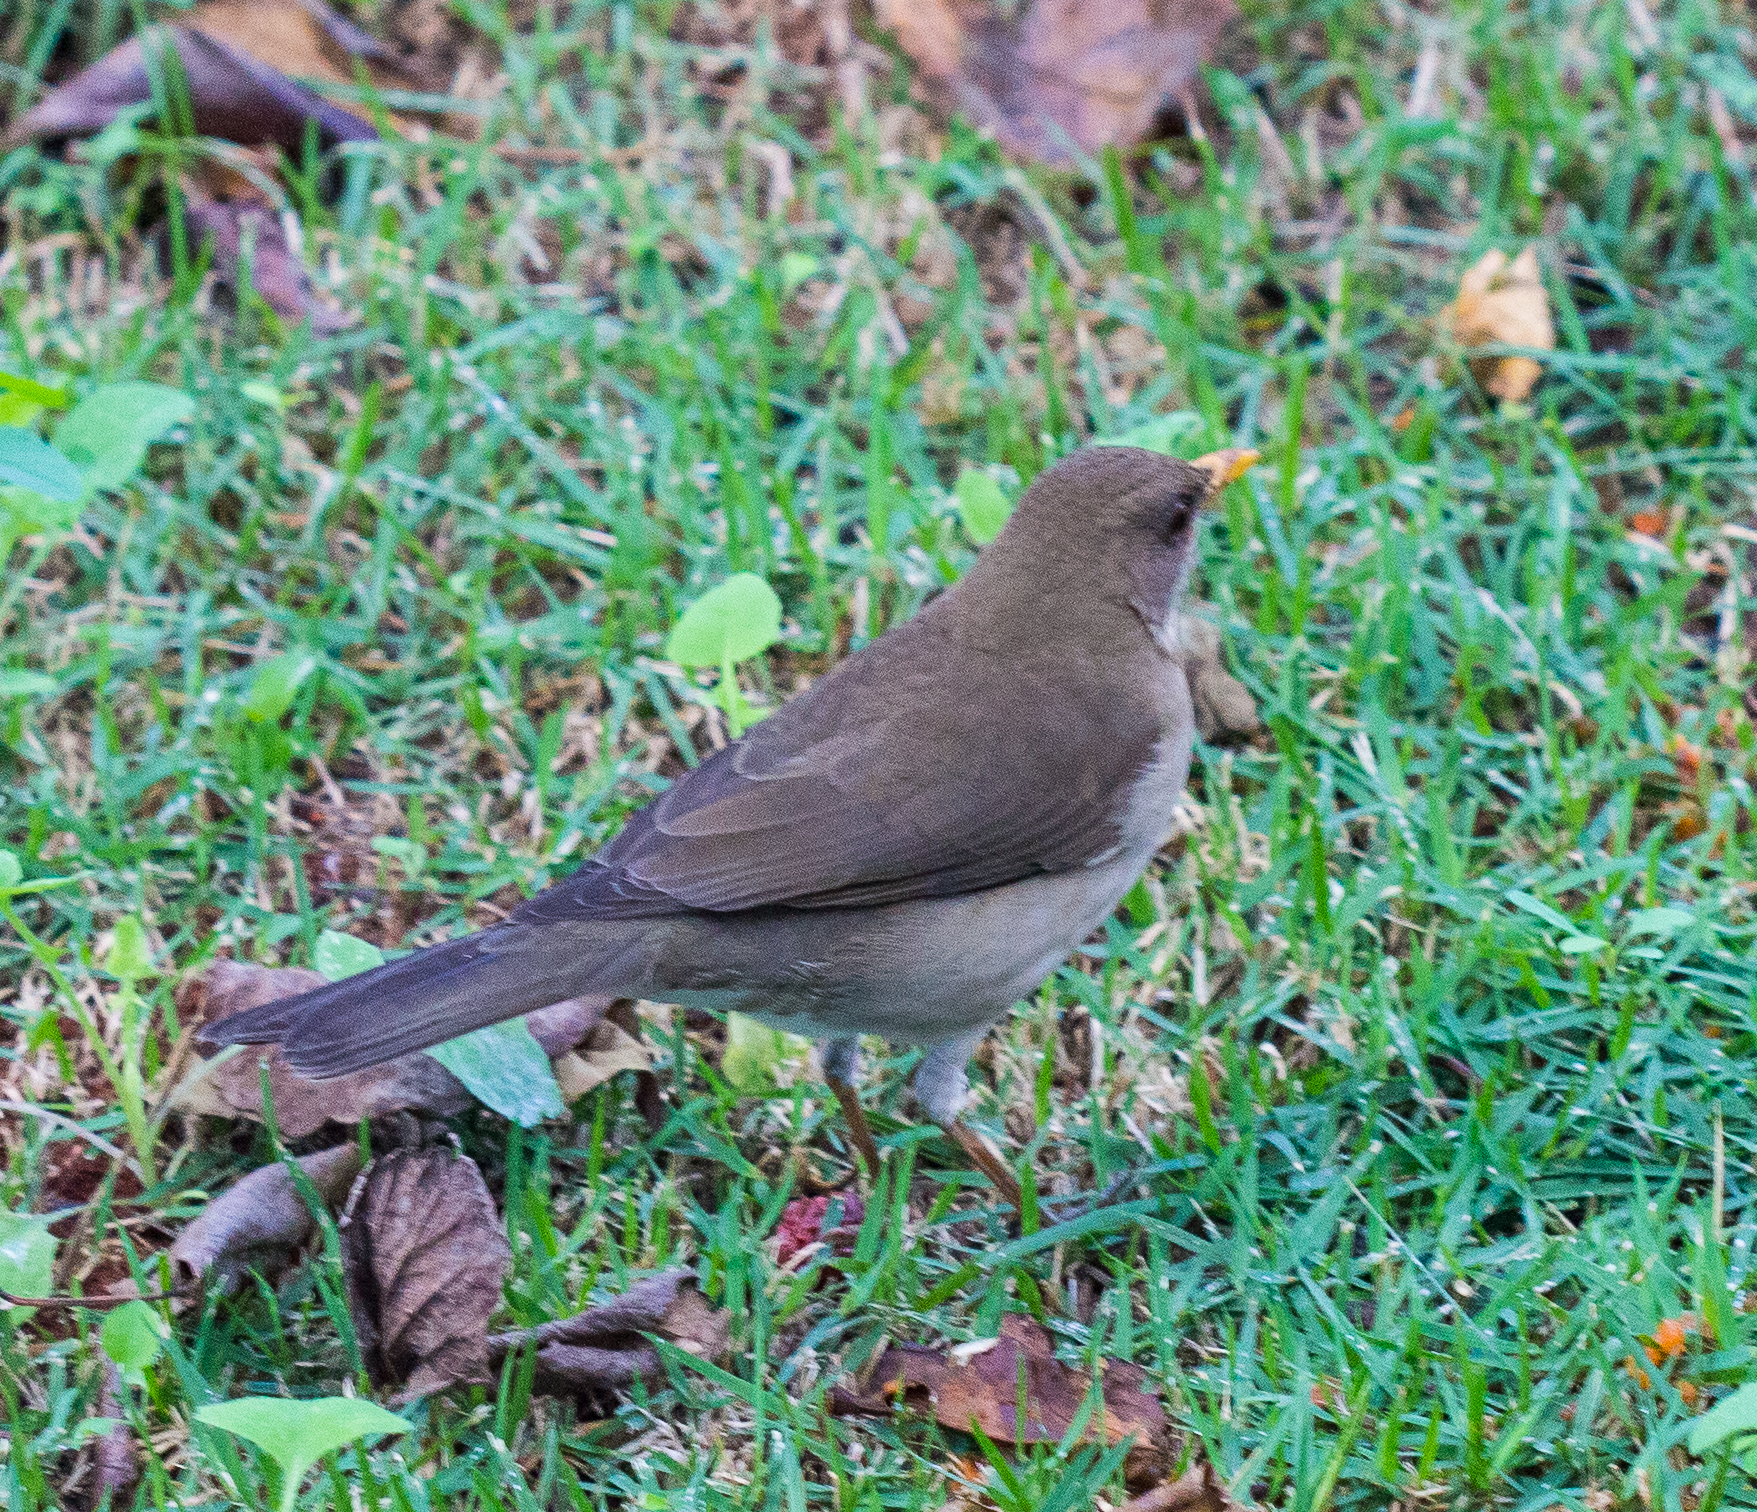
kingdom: Animalia
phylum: Chordata
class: Aves
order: Passeriformes
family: Turdidae
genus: Turdus
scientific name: Turdus amaurochalinus
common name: Creamy-bellied thrush
